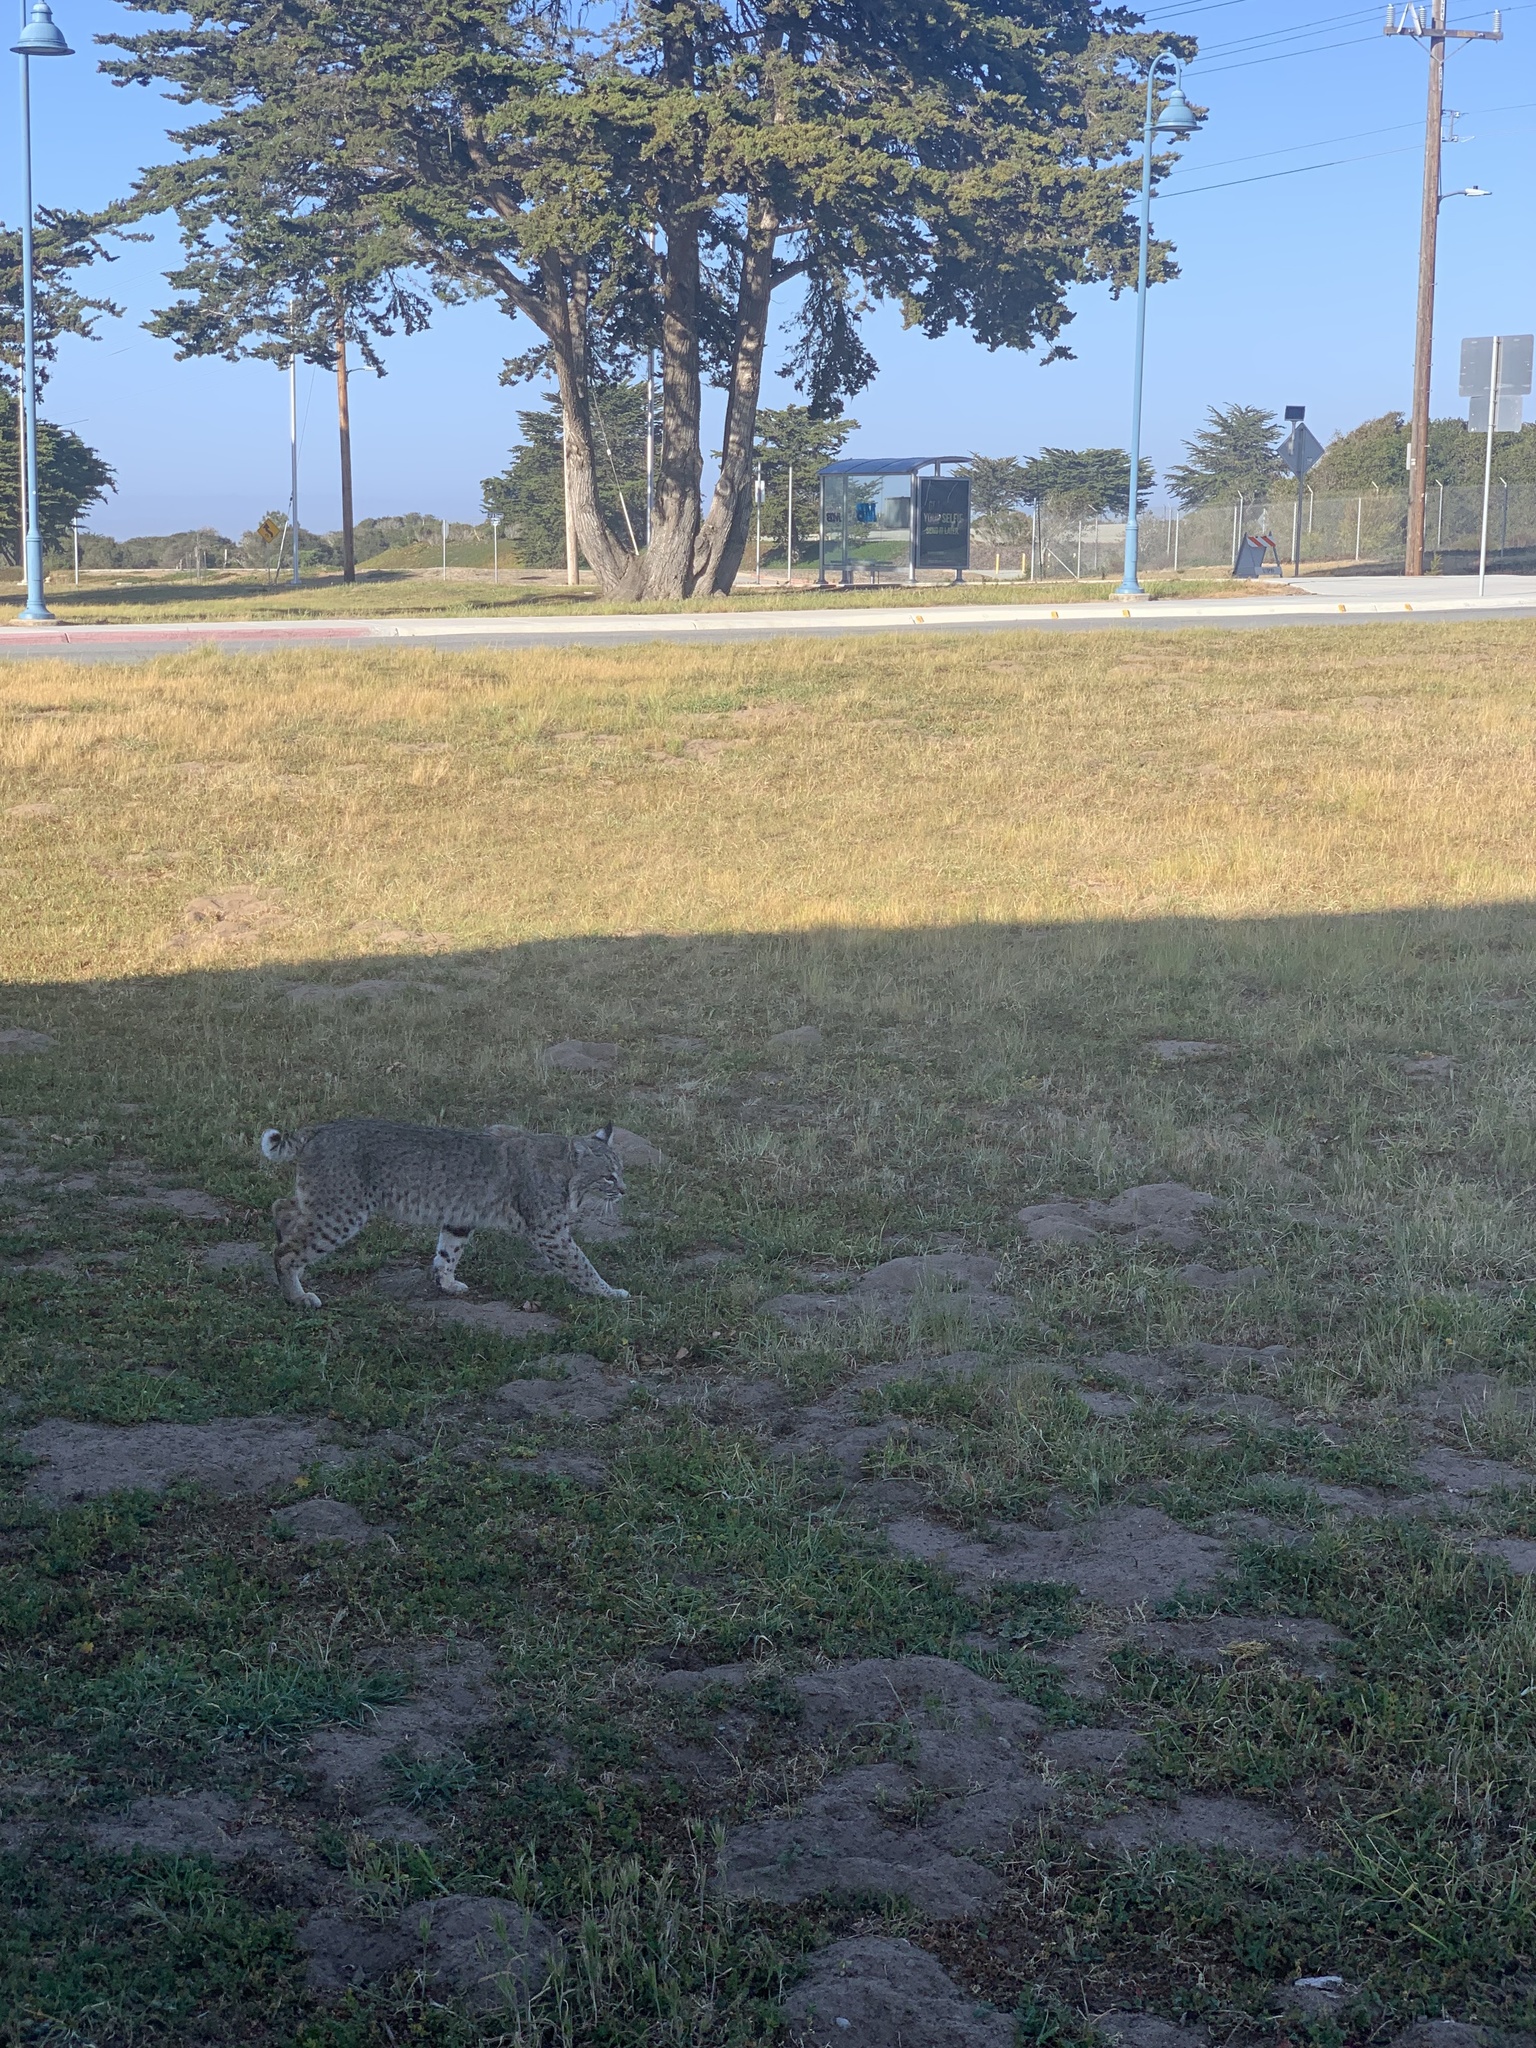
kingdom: Animalia
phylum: Chordata
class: Mammalia
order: Carnivora
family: Felidae
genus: Lynx
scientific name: Lynx rufus
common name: Bobcat
